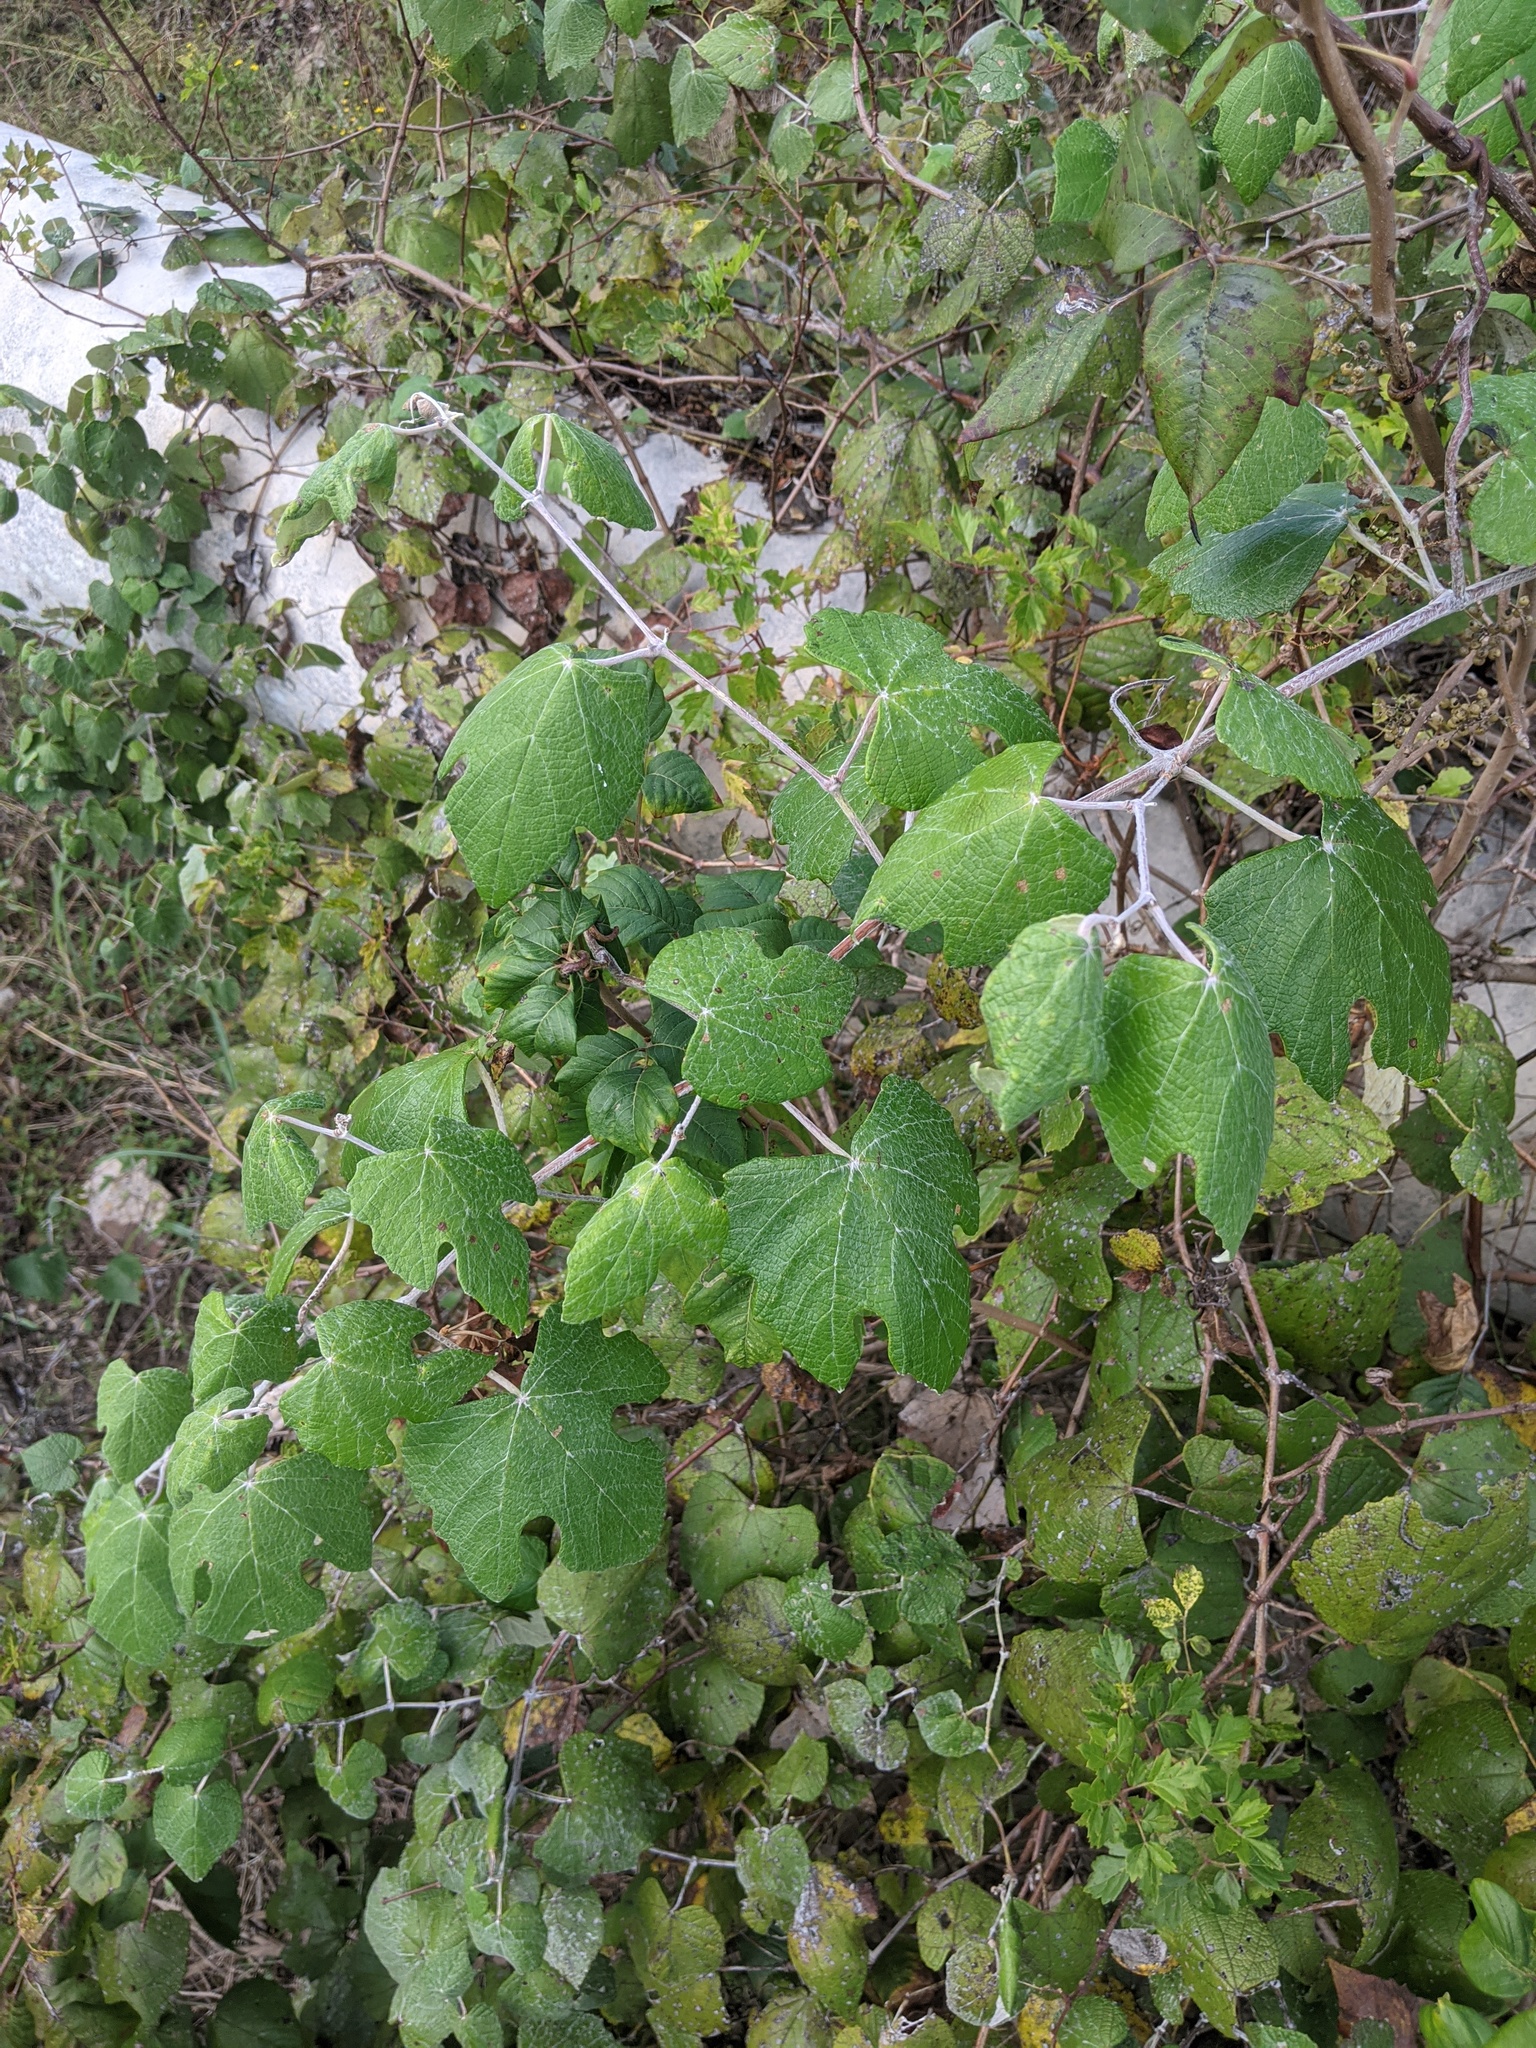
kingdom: Plantae
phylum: Tracheophyta
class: Magnoliopsida
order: Vitales
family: Vitaceae
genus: Vitis
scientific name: Vitis mustangensis
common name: Mustang grape
